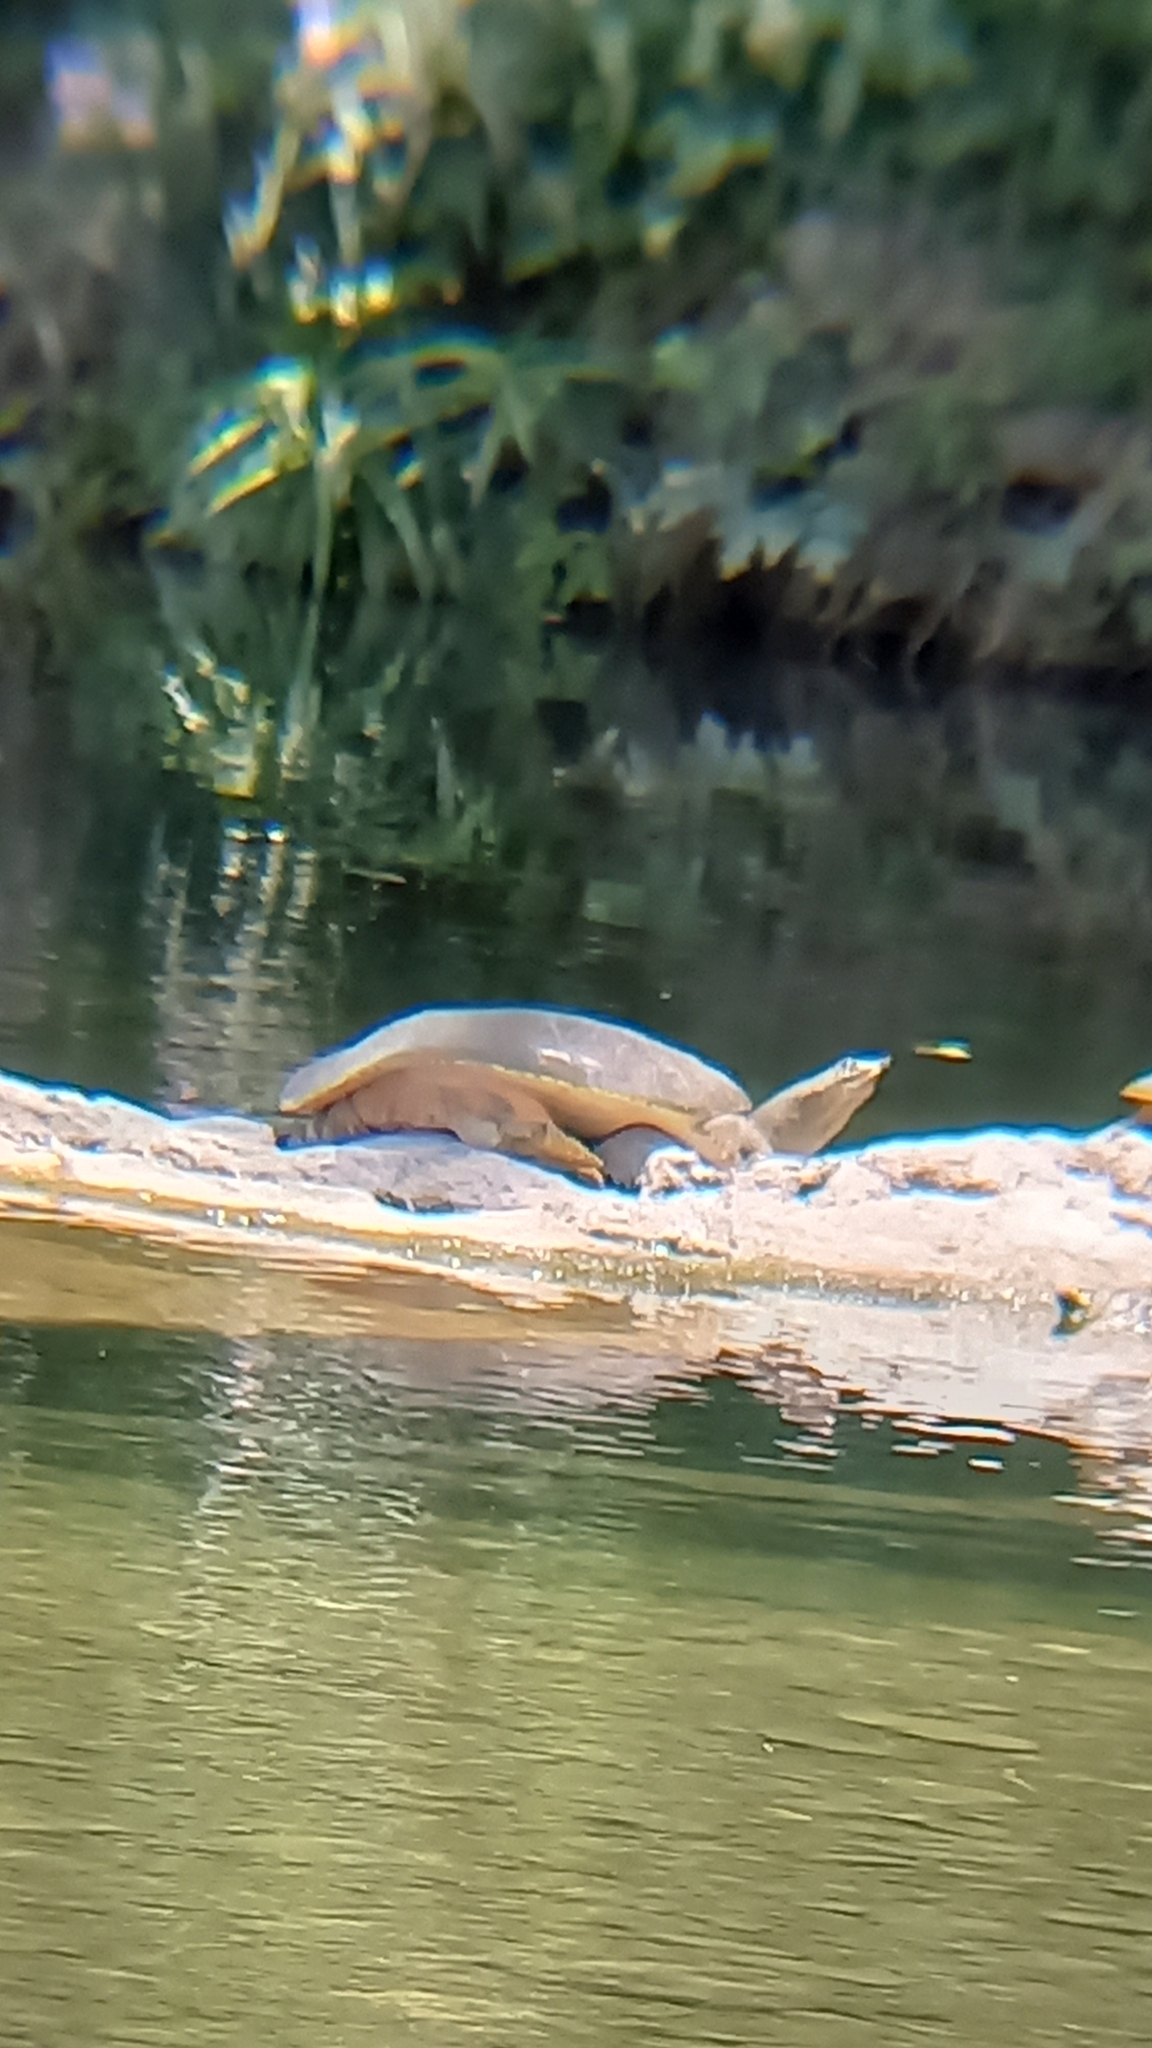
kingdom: Animalia
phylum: Chordata
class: Testudines
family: Trionychidae
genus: Apalone
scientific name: Apalone spinifera
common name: Spiny softshell turtle
